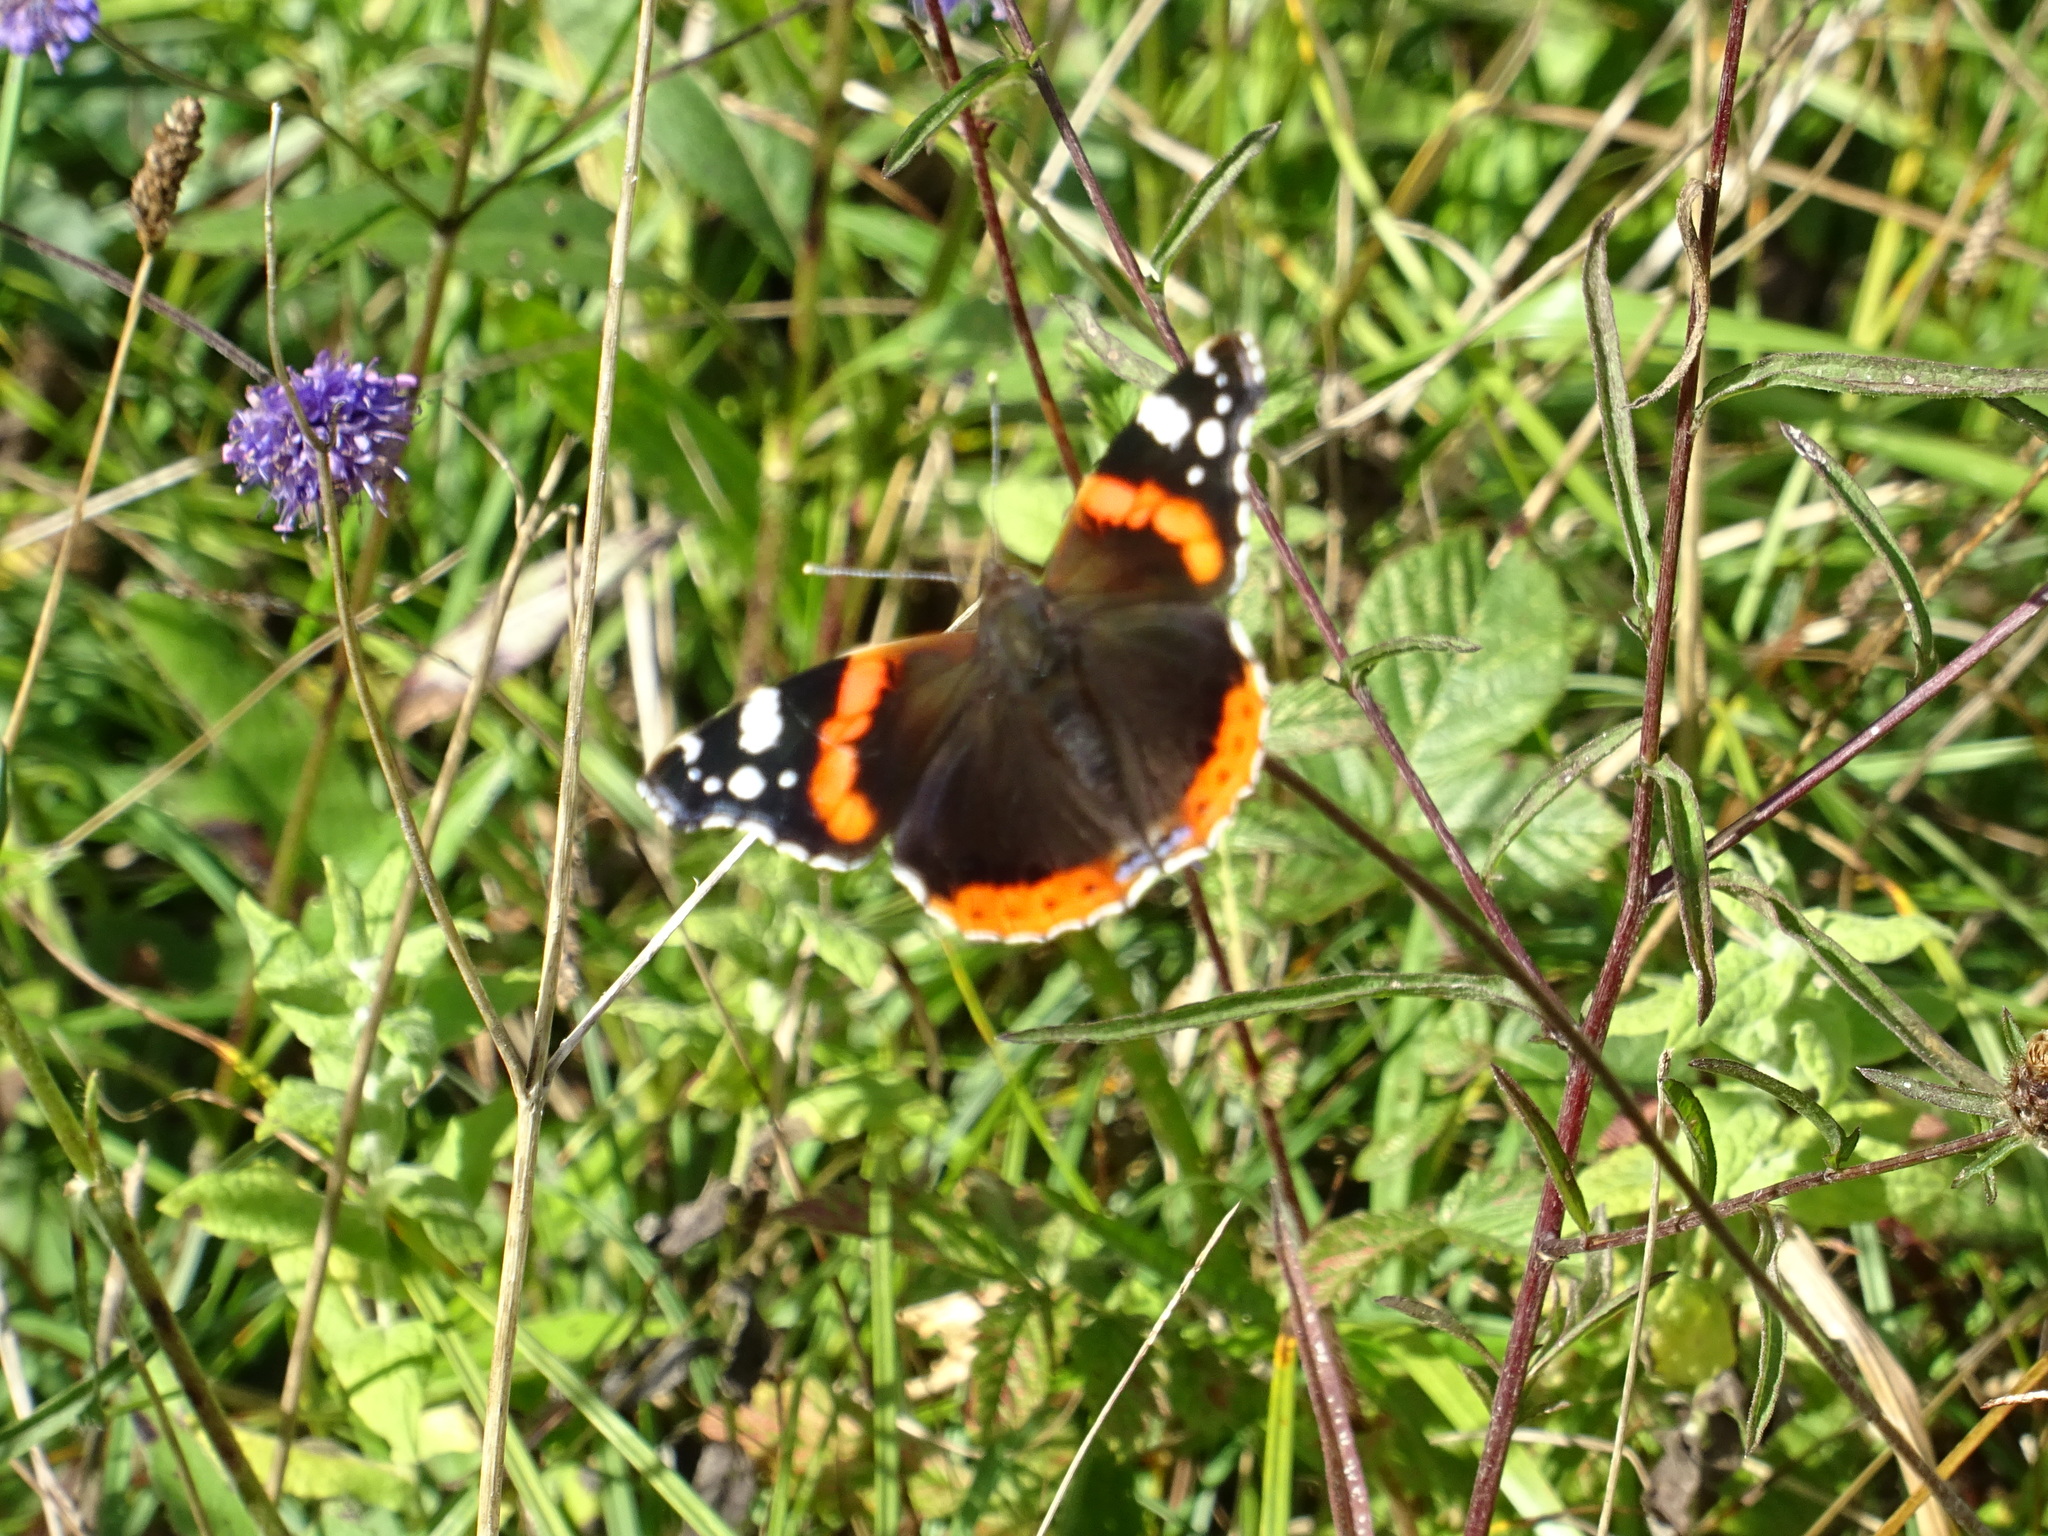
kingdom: Animalia
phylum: Arthropoda
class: Insecta
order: Lepidoptera
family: Nymphalidae
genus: Vanessa
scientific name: Vanessa atalanta
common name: Red admiral
